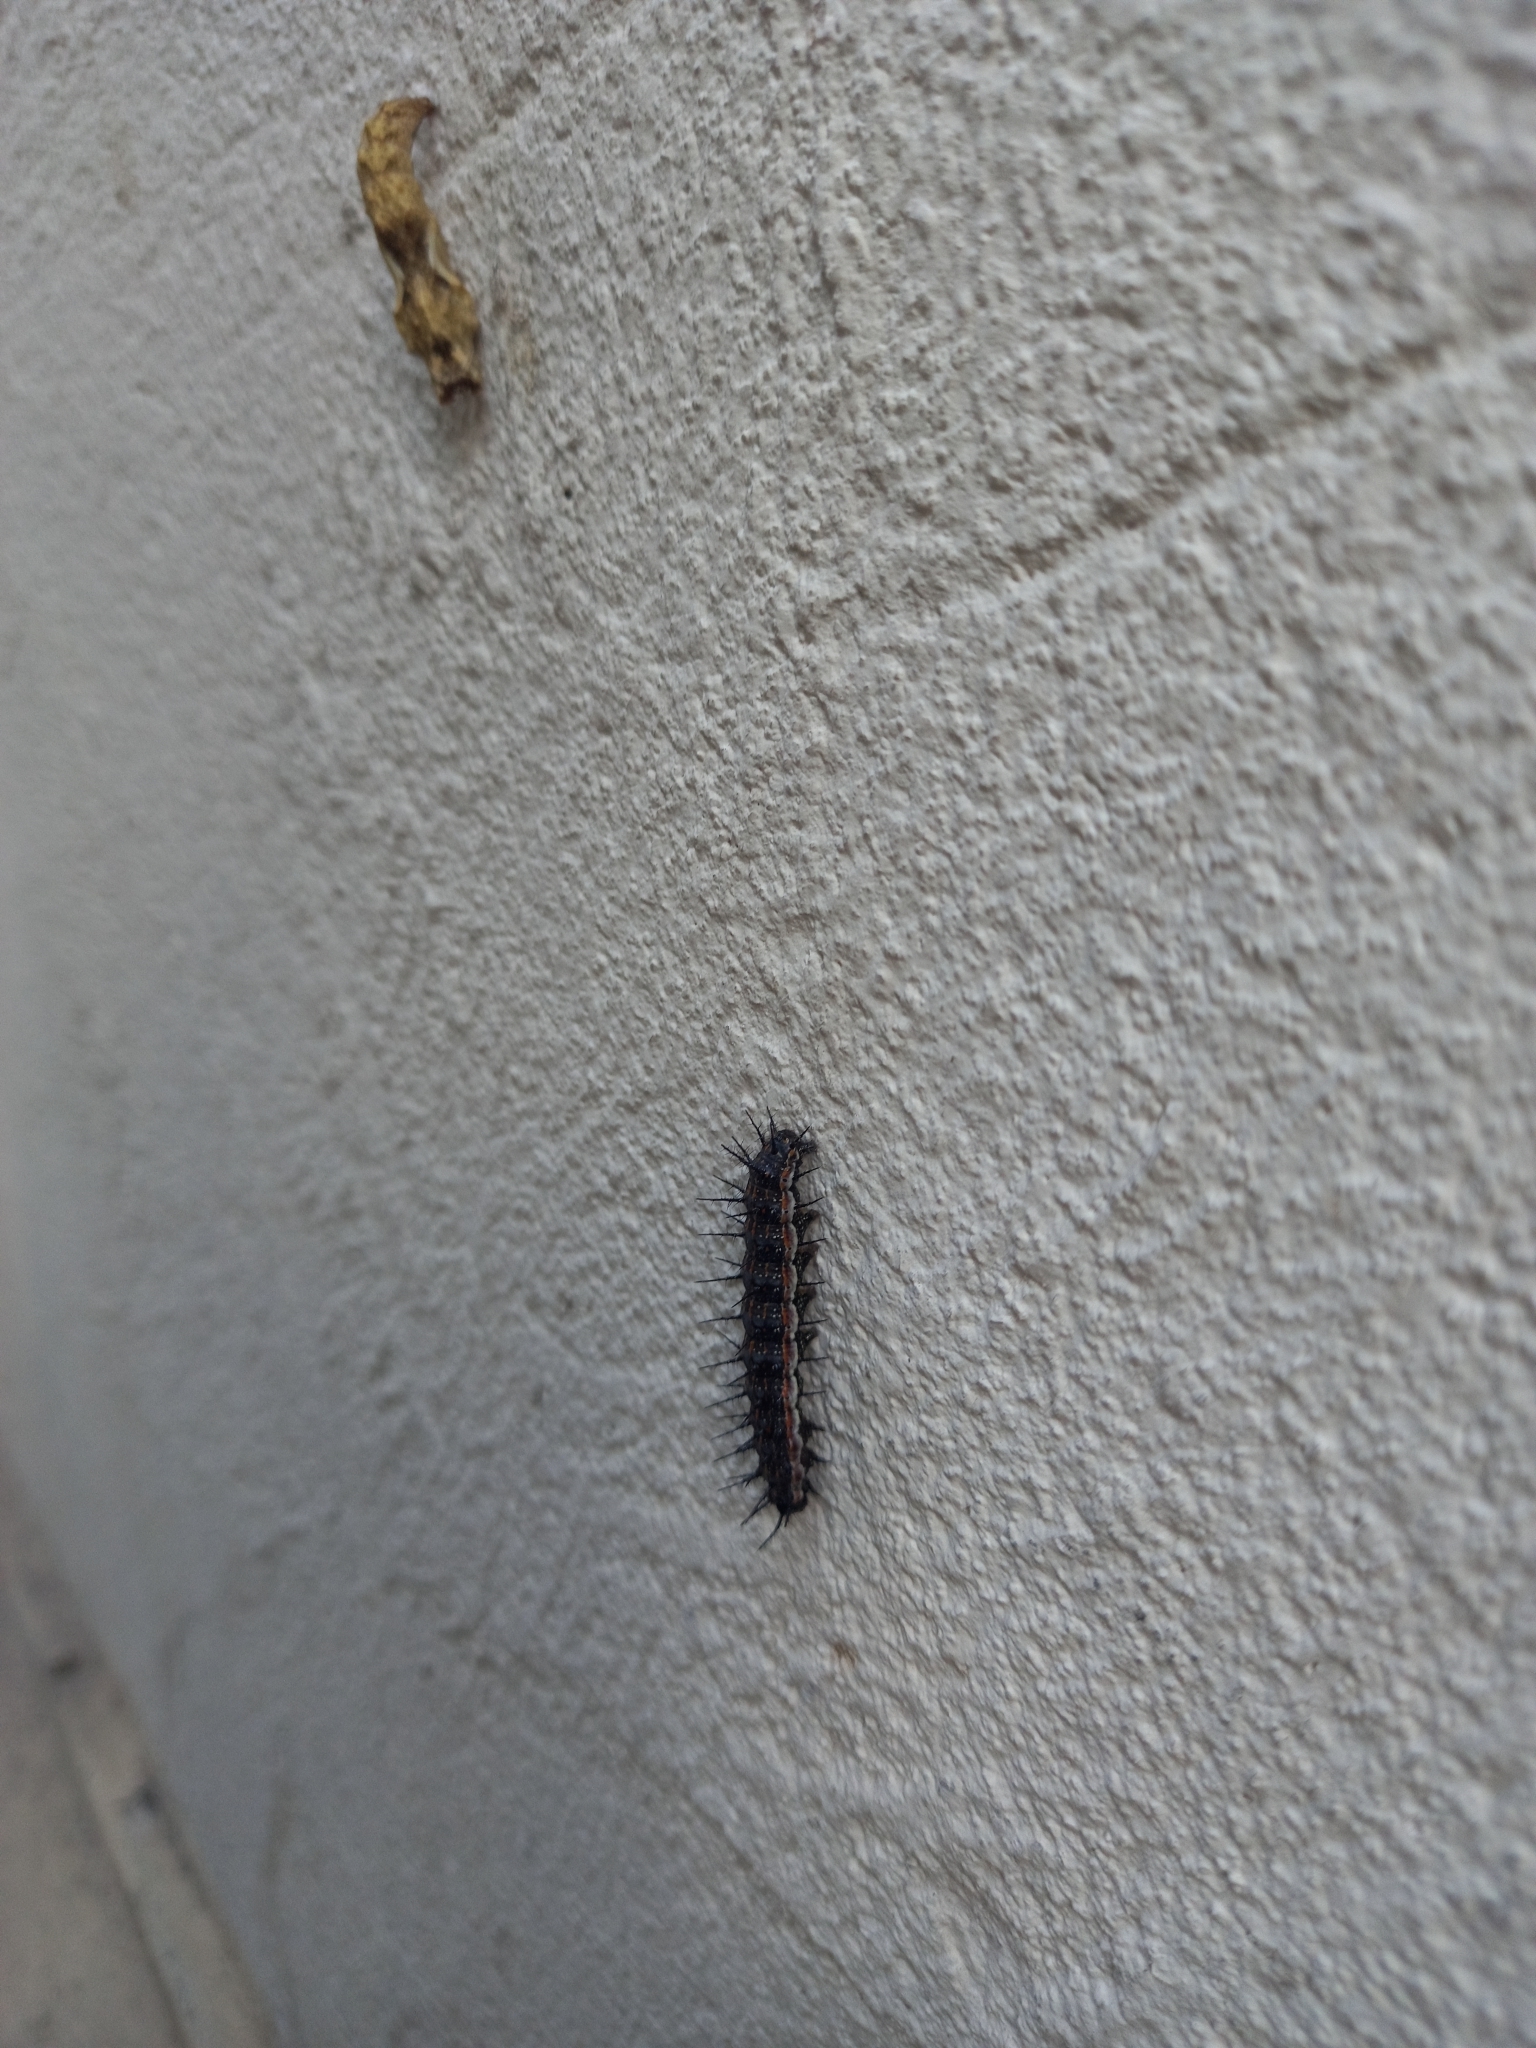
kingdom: Animalia
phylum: Arthropoda
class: Insecta
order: Lepidoptera
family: Nymphalidae
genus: Dione
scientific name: Dione vanillae
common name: Gulf fritillary
